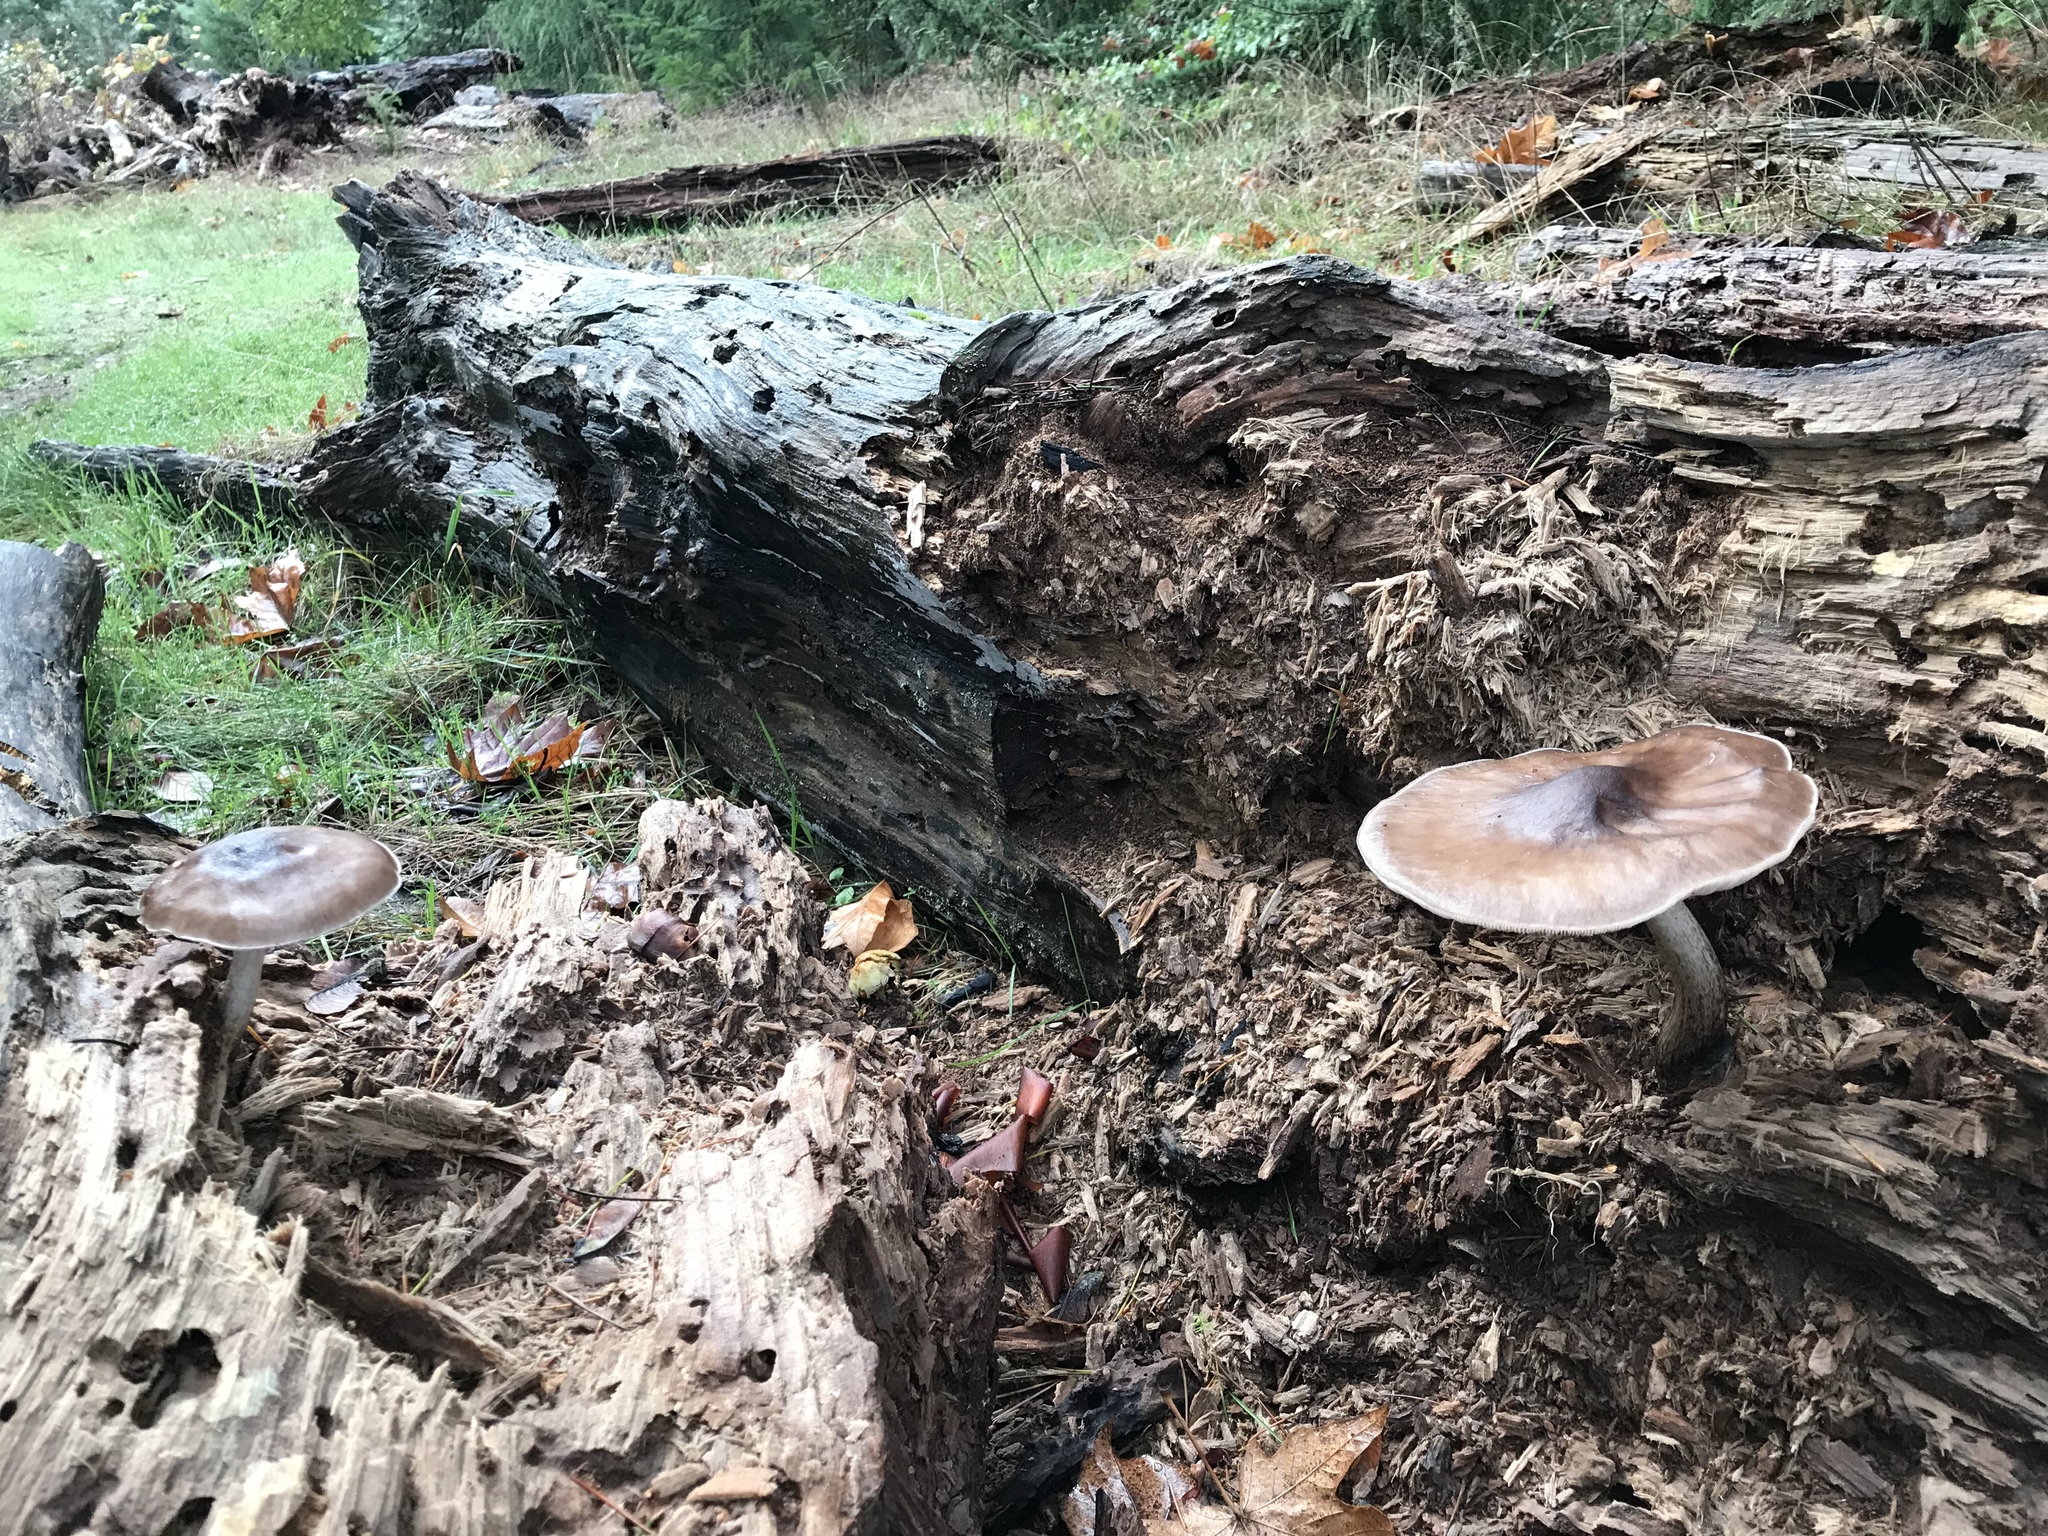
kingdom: Fungi
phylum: Basidiomycota
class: Agaricomycetes
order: Agaricales
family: Pluteaceae
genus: Pluteus
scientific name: Pluteus cervinus
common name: Deer shield
